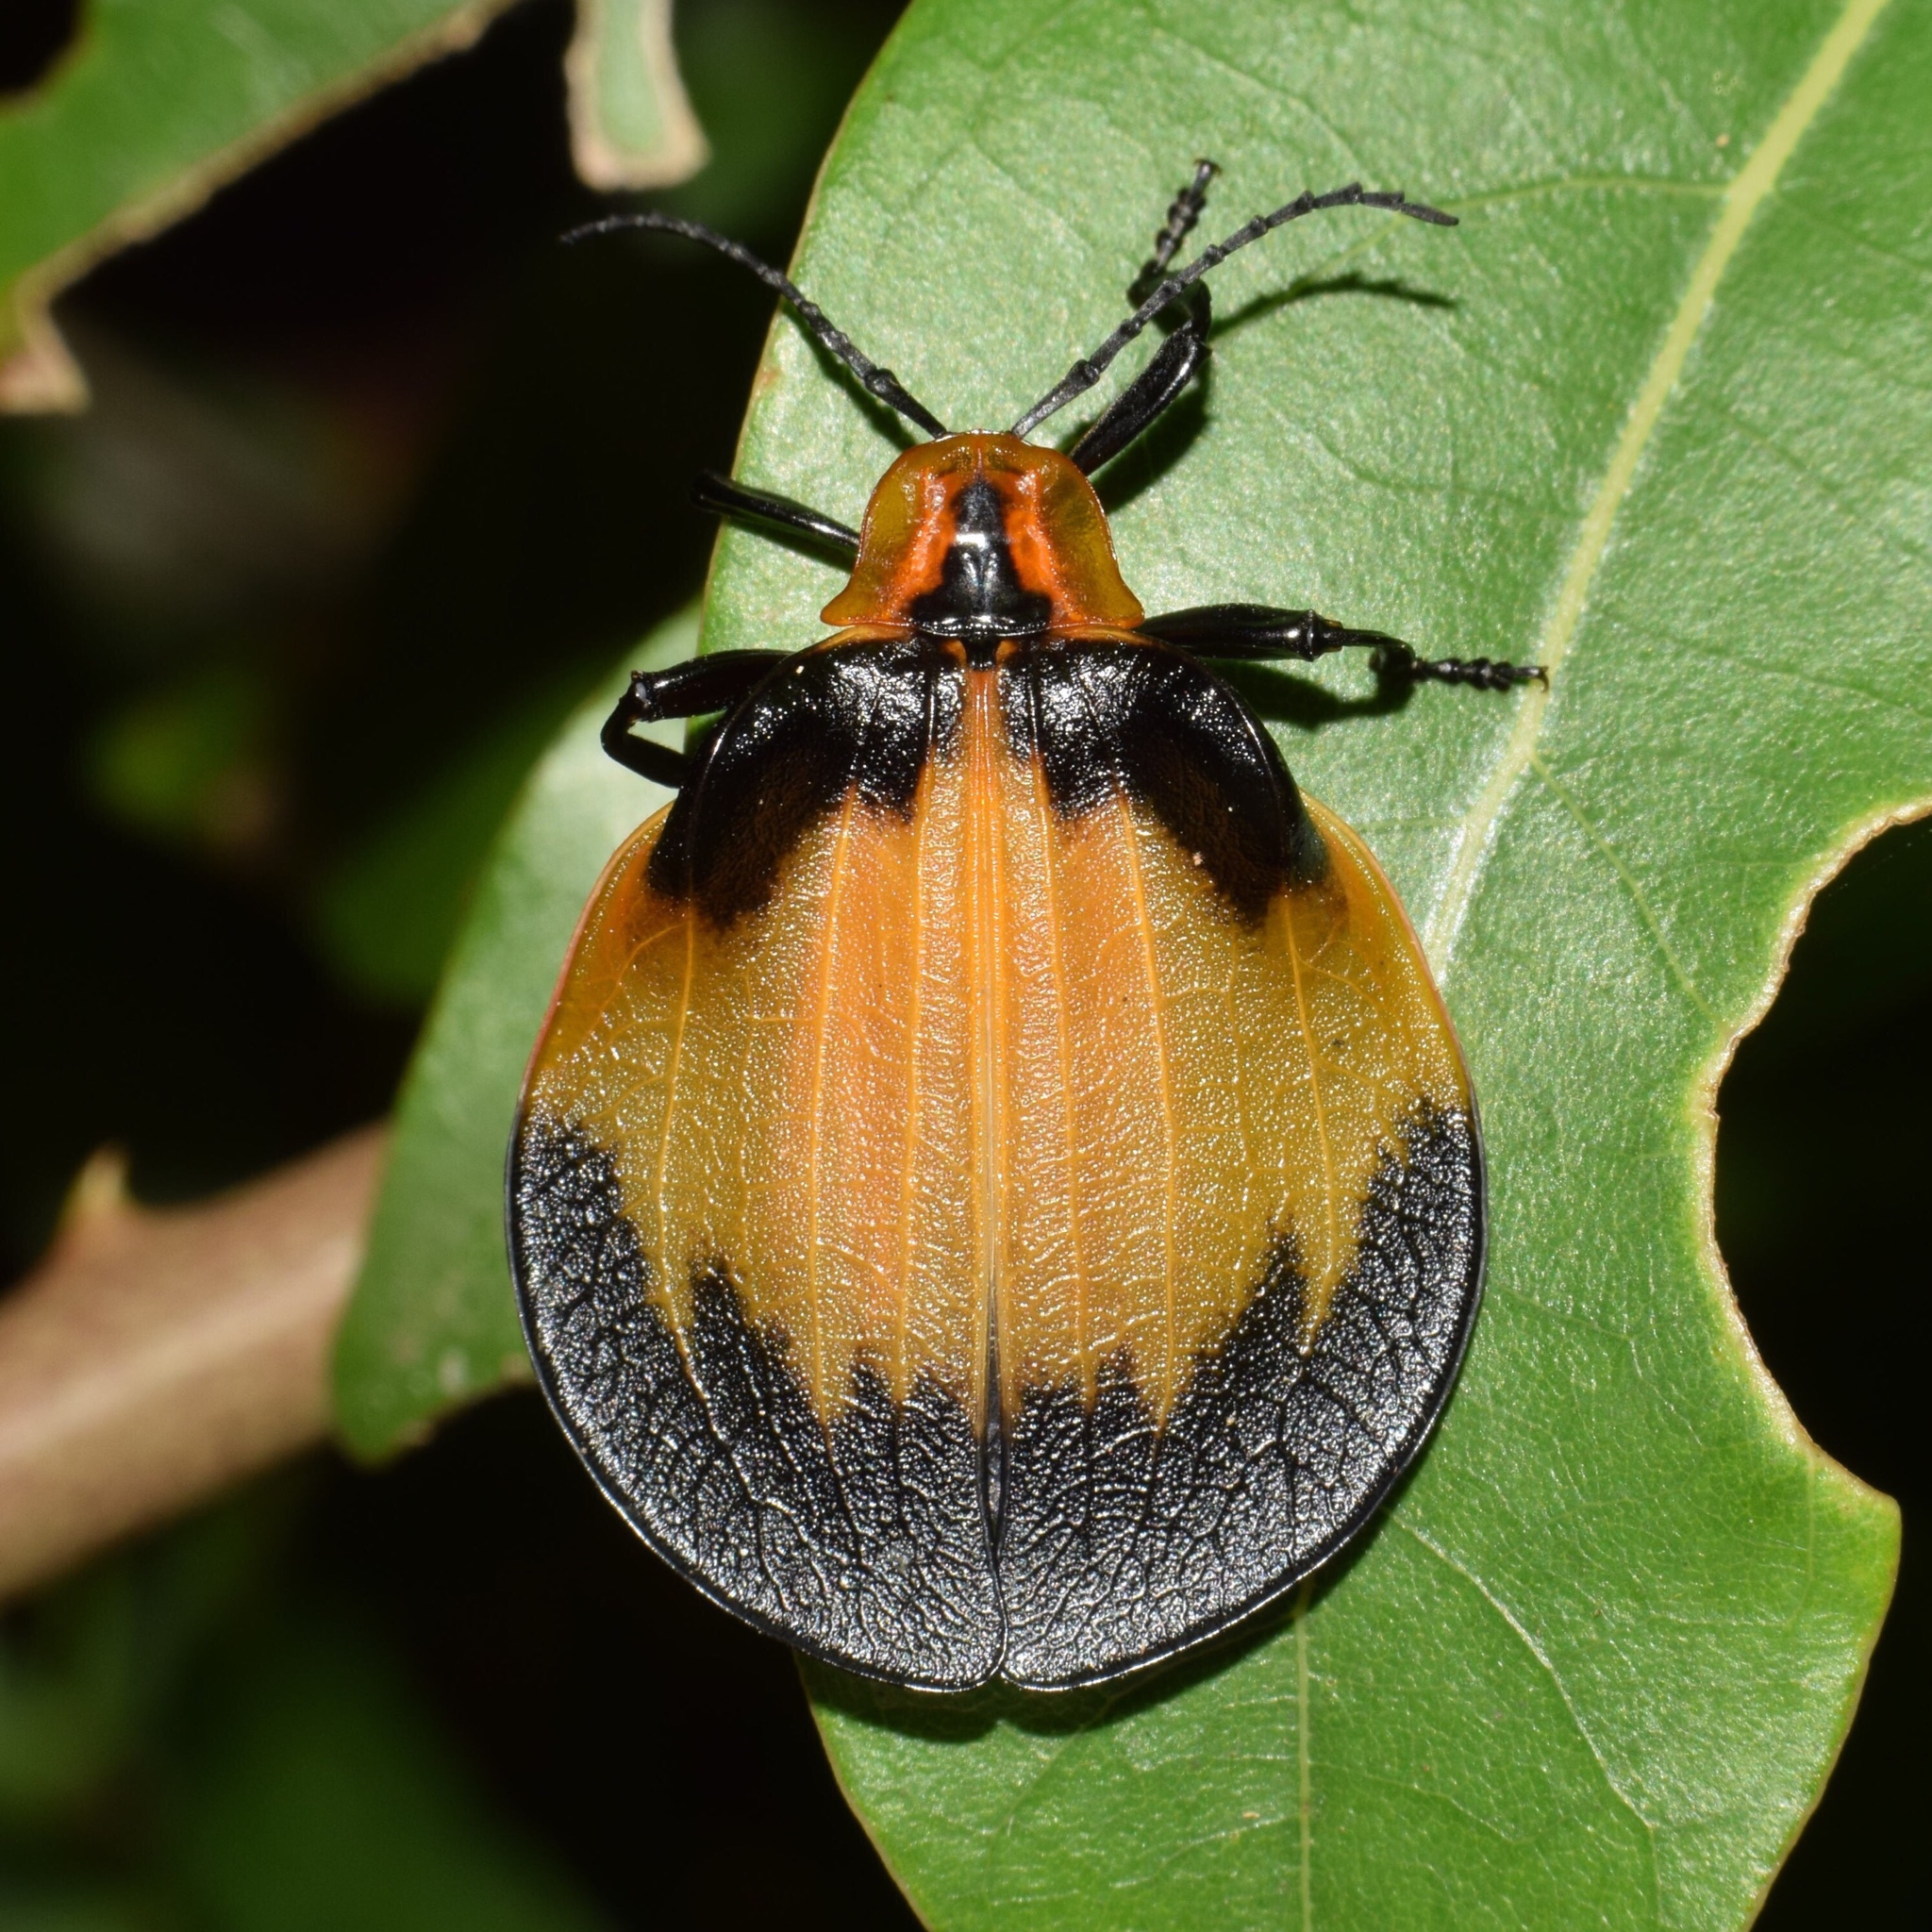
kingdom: Animalia
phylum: Arthropoda
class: Insecta
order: Coleoptera
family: Lycidae
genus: Lycus
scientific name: Lycus
